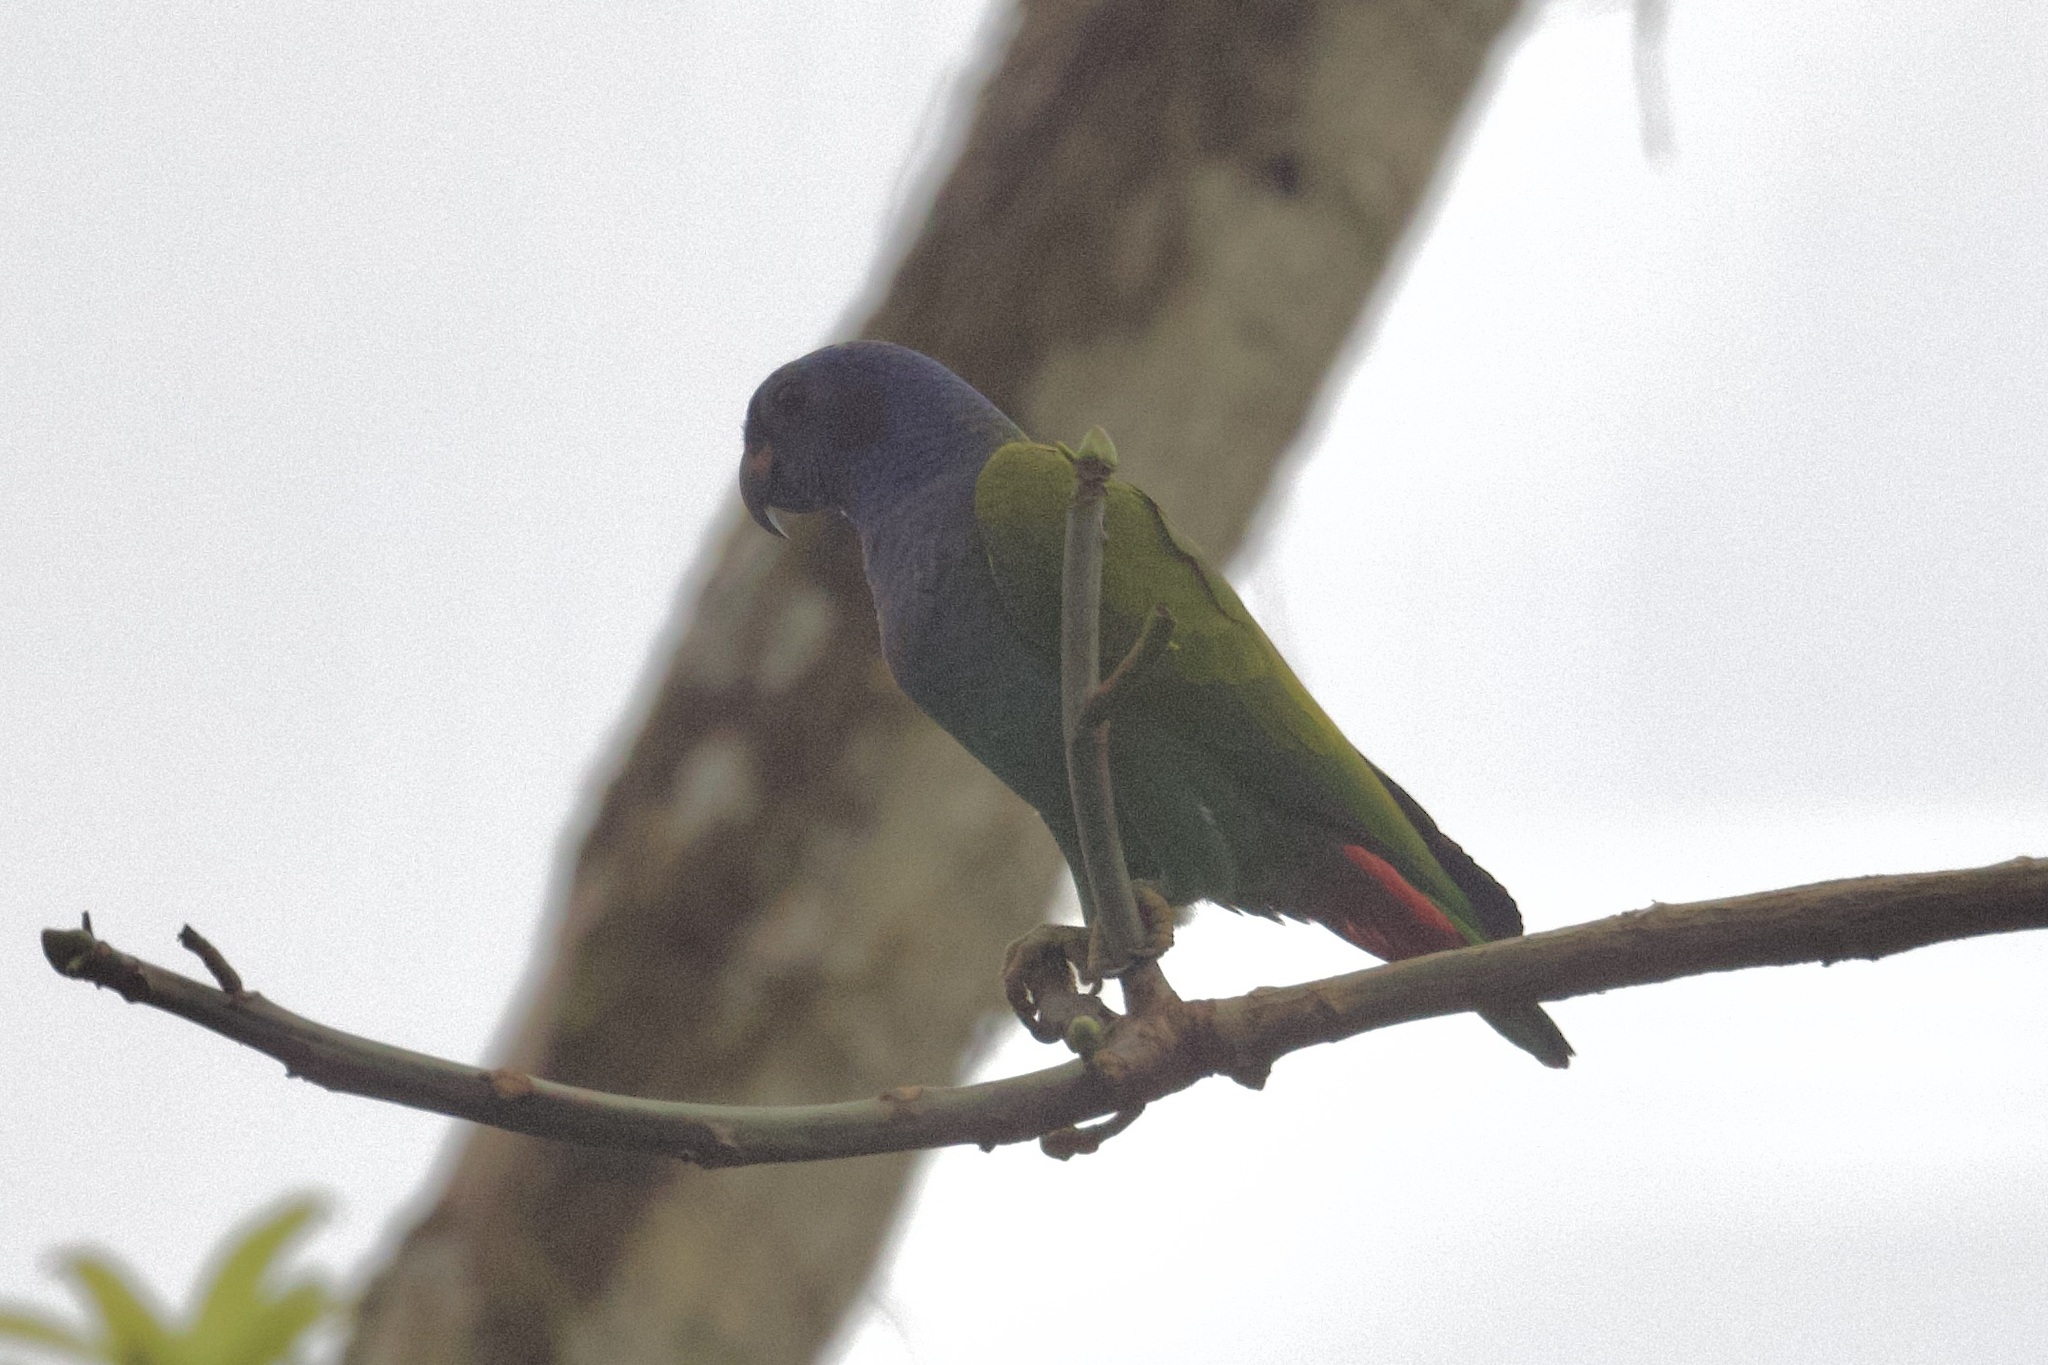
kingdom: Animalia
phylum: Chordata
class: Aves
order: Psittaciformes
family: Psittacidae
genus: Pionus
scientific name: Pionus menstruus
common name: Blue-headed parrot
